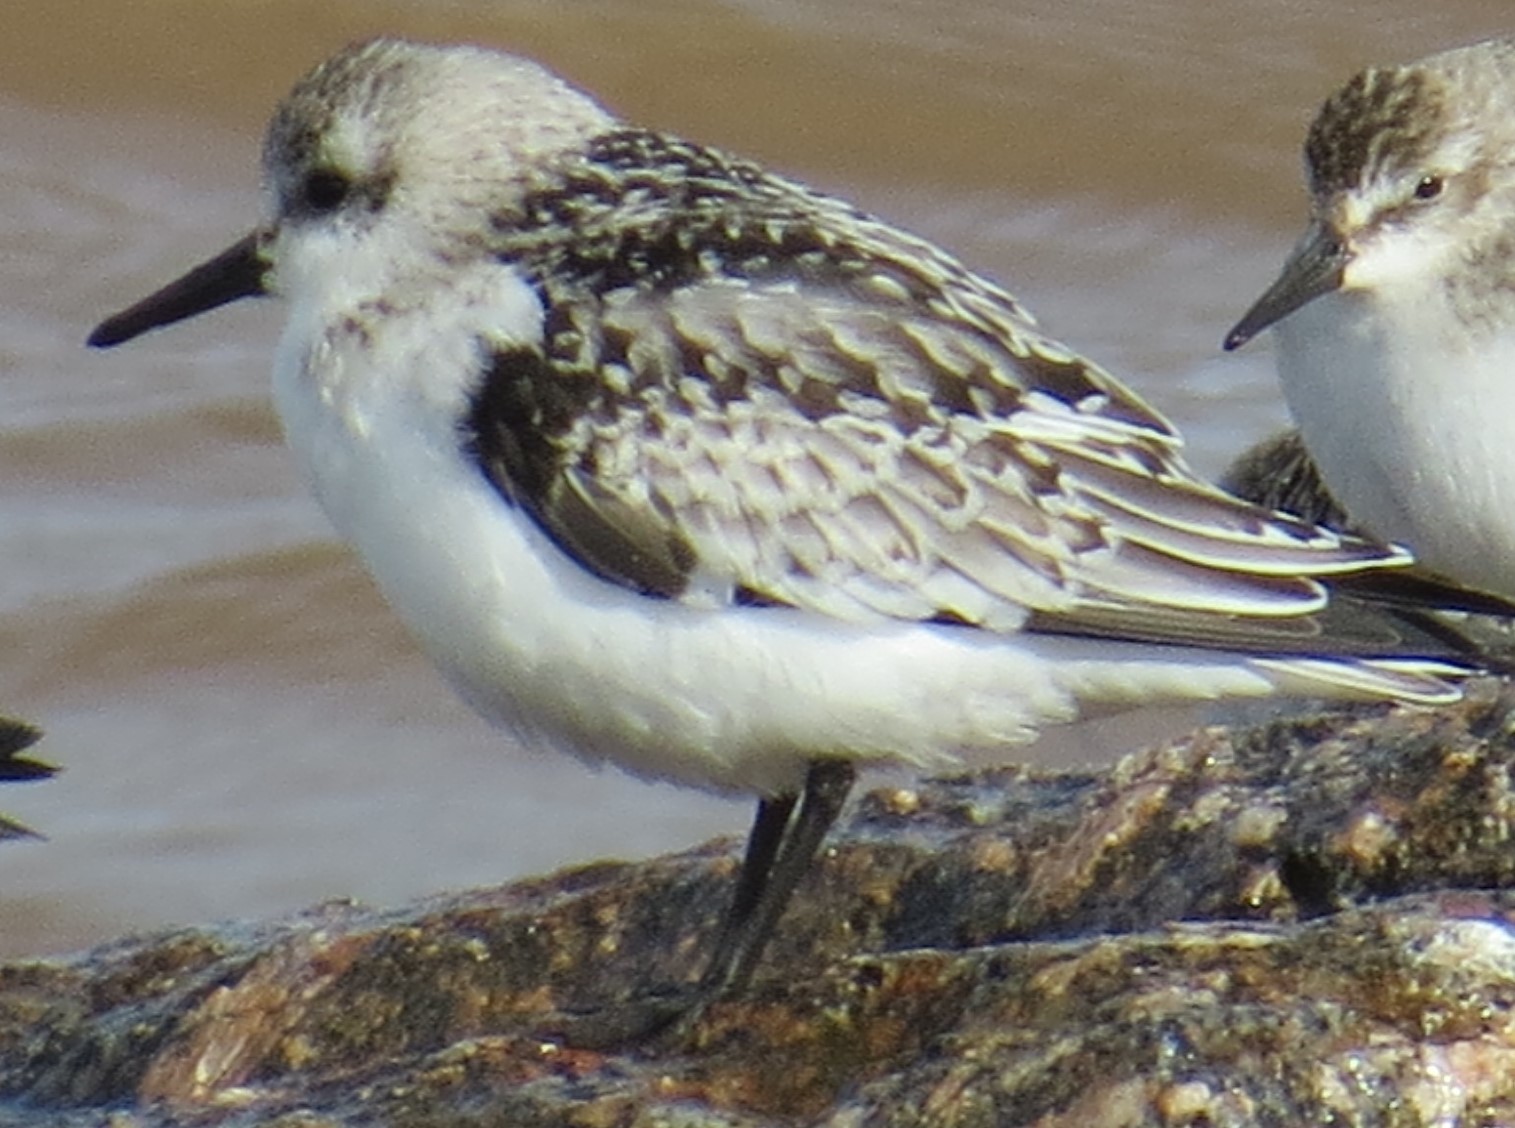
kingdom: Animalia
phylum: Chordata
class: Aves
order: Charadriiformes
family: Scolopacidae
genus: Calidris
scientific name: Calidris alba
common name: Sanderling
